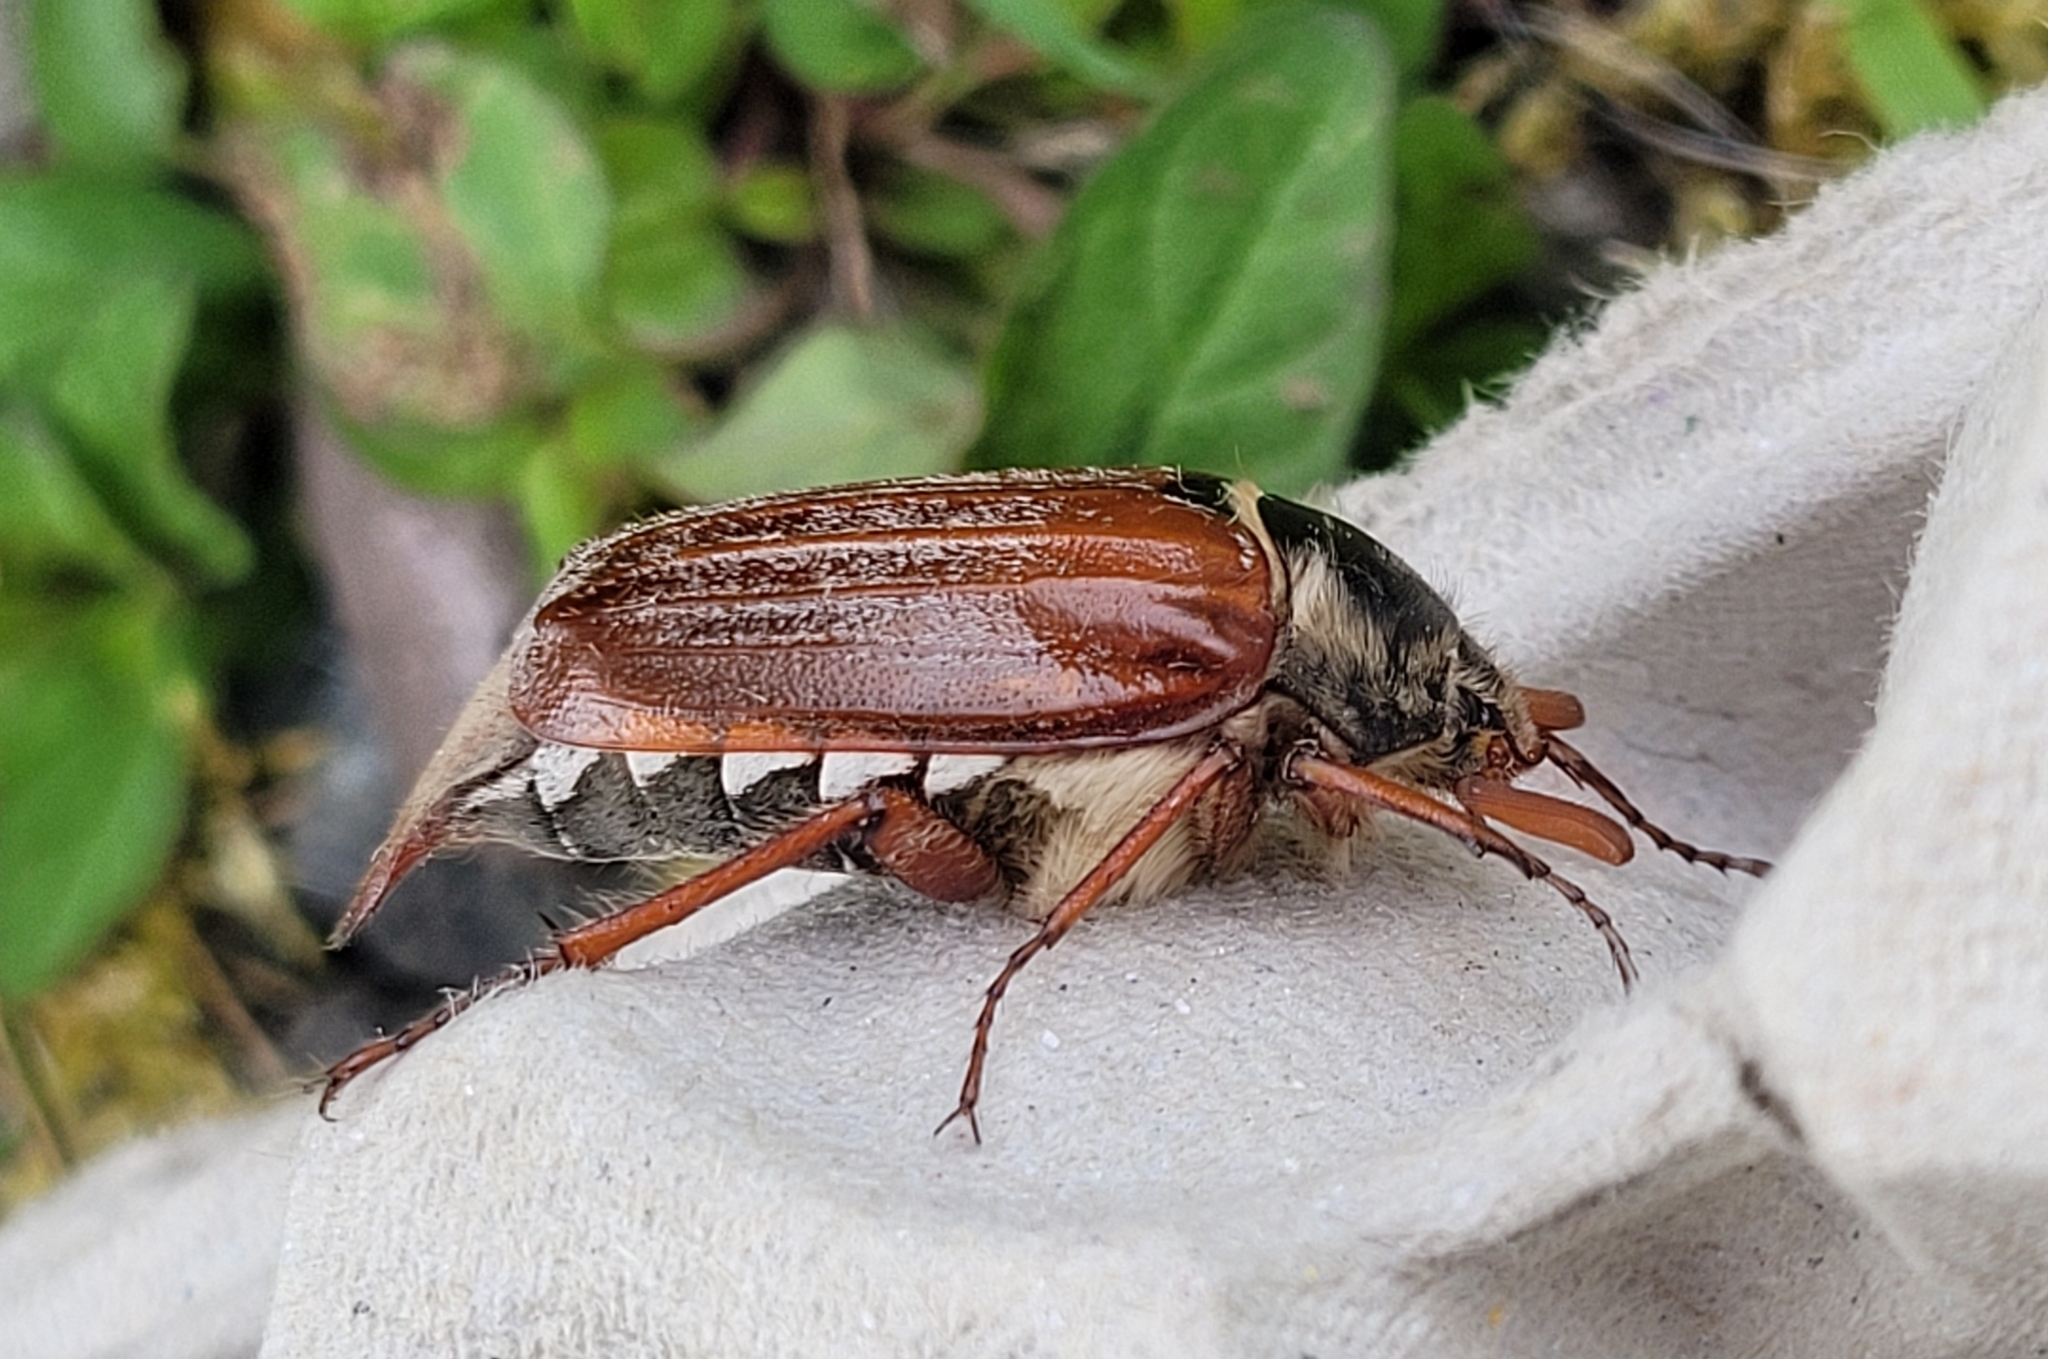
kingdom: Animalia
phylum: Arthropoda
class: Insecta
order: Coleoptera
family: Scarabaeidae
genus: Melolontha
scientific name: Melolontha melolontha
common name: Cockchafer maybeetle
